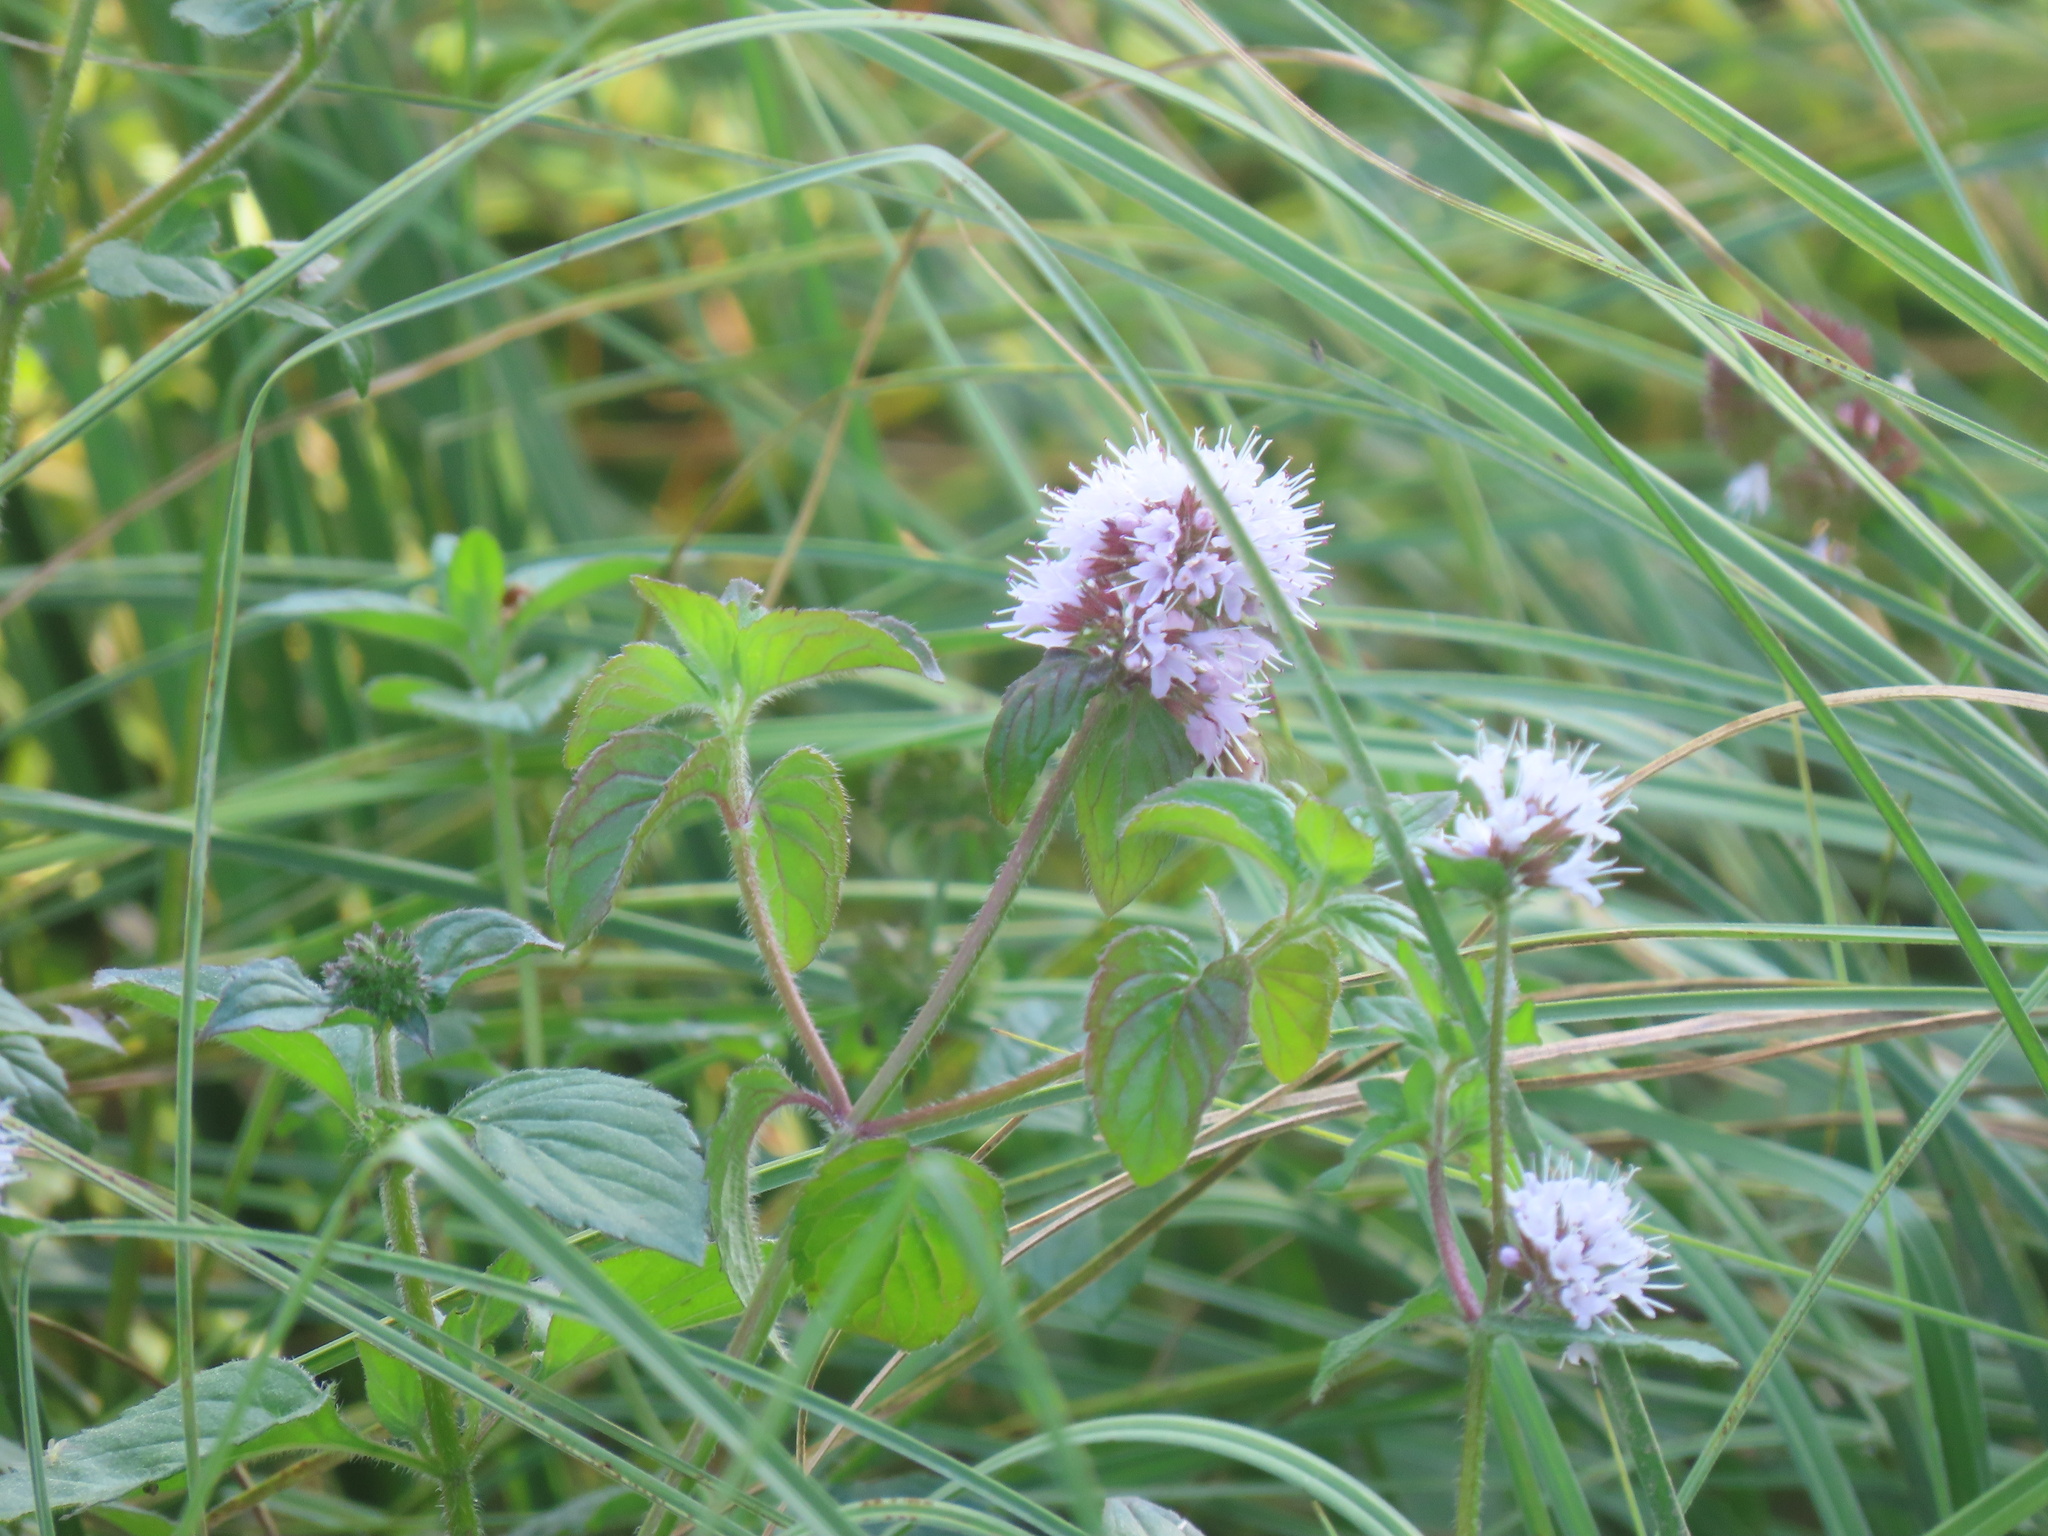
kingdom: Plantae
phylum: Tracheophyta
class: Magnoliopsida
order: Lamiales
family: Lamiaceae
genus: Mentha
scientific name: Mentha aquatica
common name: Water mint
